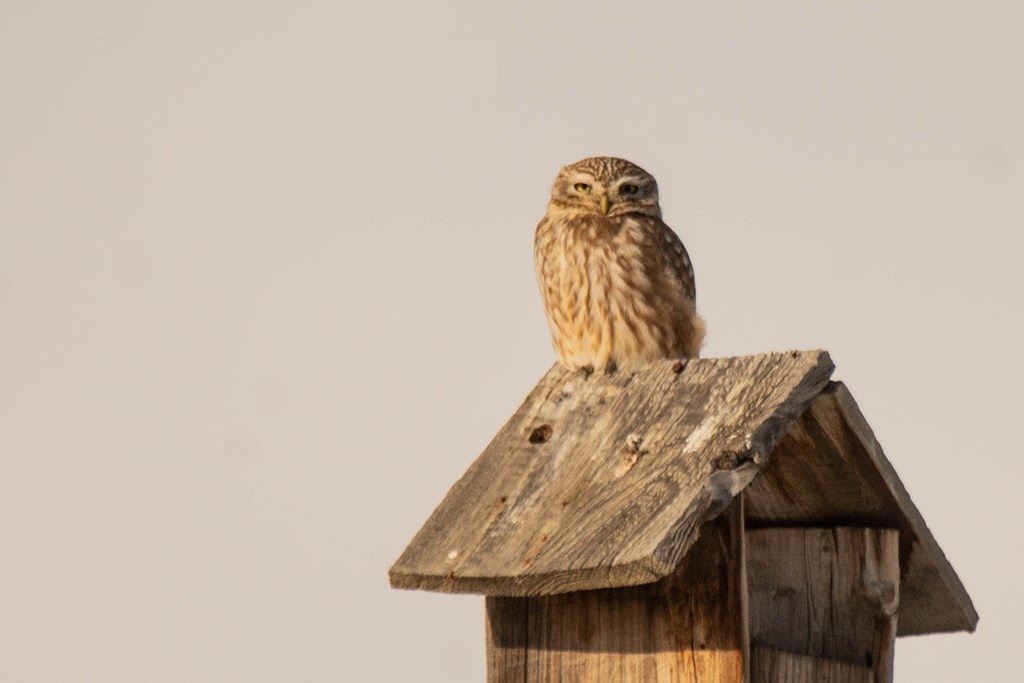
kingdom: Animalia
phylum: Chordata
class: Aves
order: Strigiformes
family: Strigidae
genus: Athene
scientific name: Athene noctua
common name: Little owl
